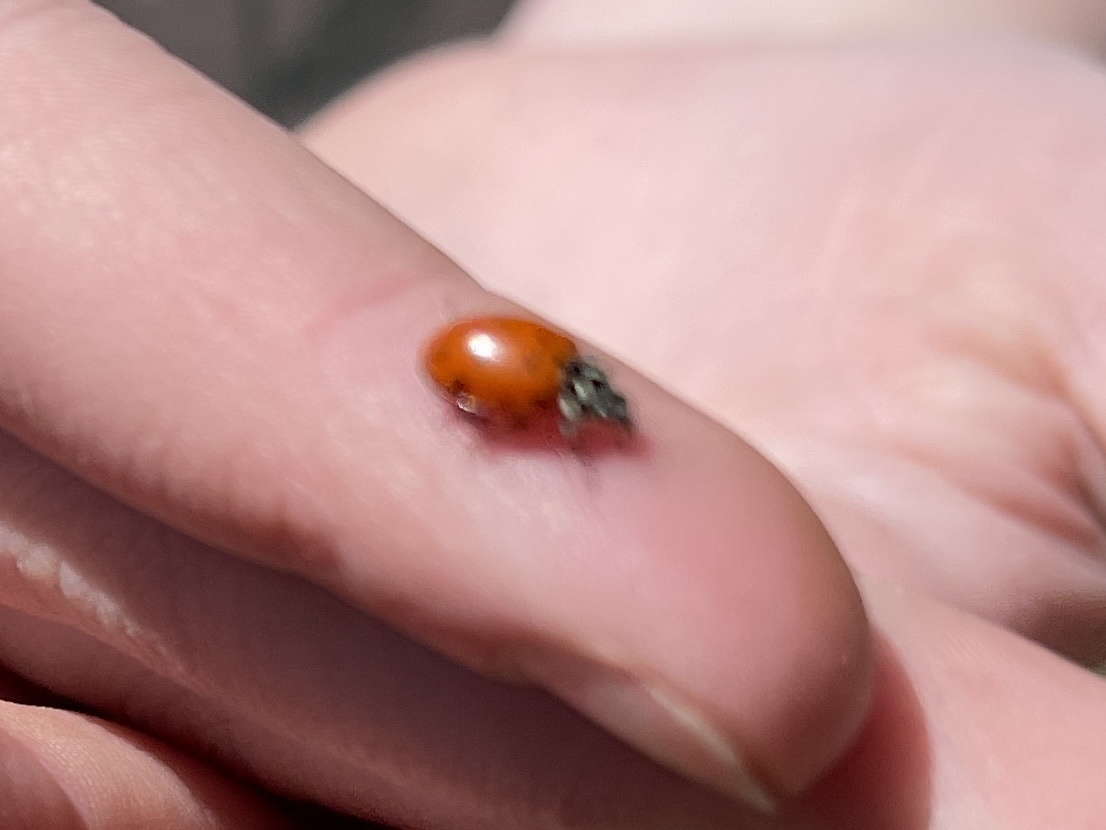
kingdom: Animalia
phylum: Arthropoda
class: Insecta
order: Coleoptera
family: Coccinellidae
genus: Hippodamia
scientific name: Hippodamia convergens
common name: Convergent lady beetle
